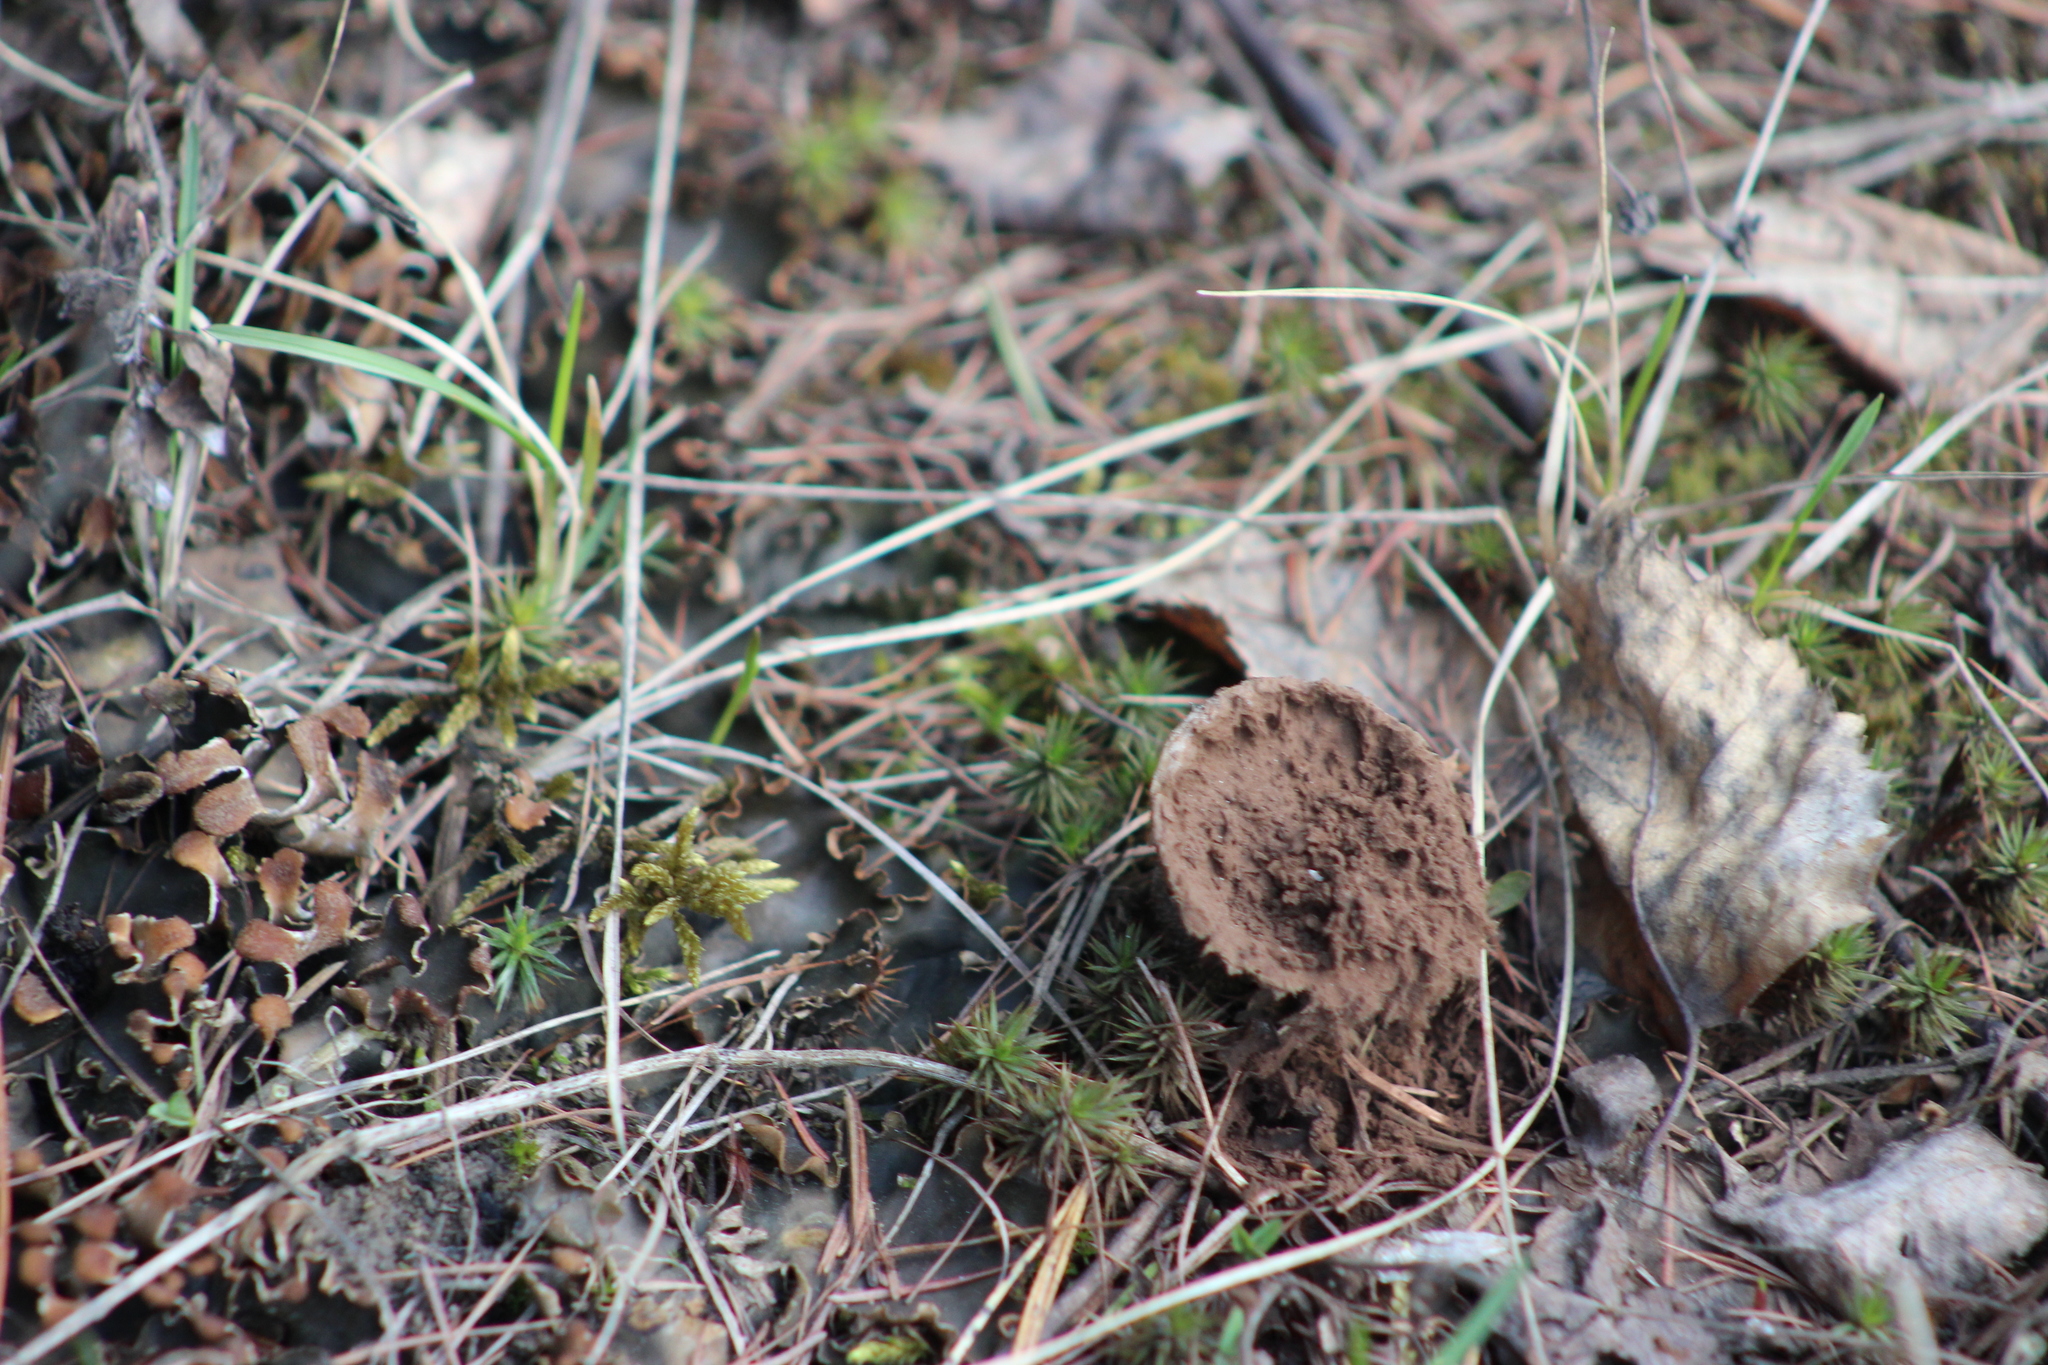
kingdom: Fungi
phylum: Basidiomycota
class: Agaricomycetes
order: Agaricales
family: Lycoperdaceae
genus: Lycoperdon
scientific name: Lycoperdon excipuliforme
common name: Pestle puffball
